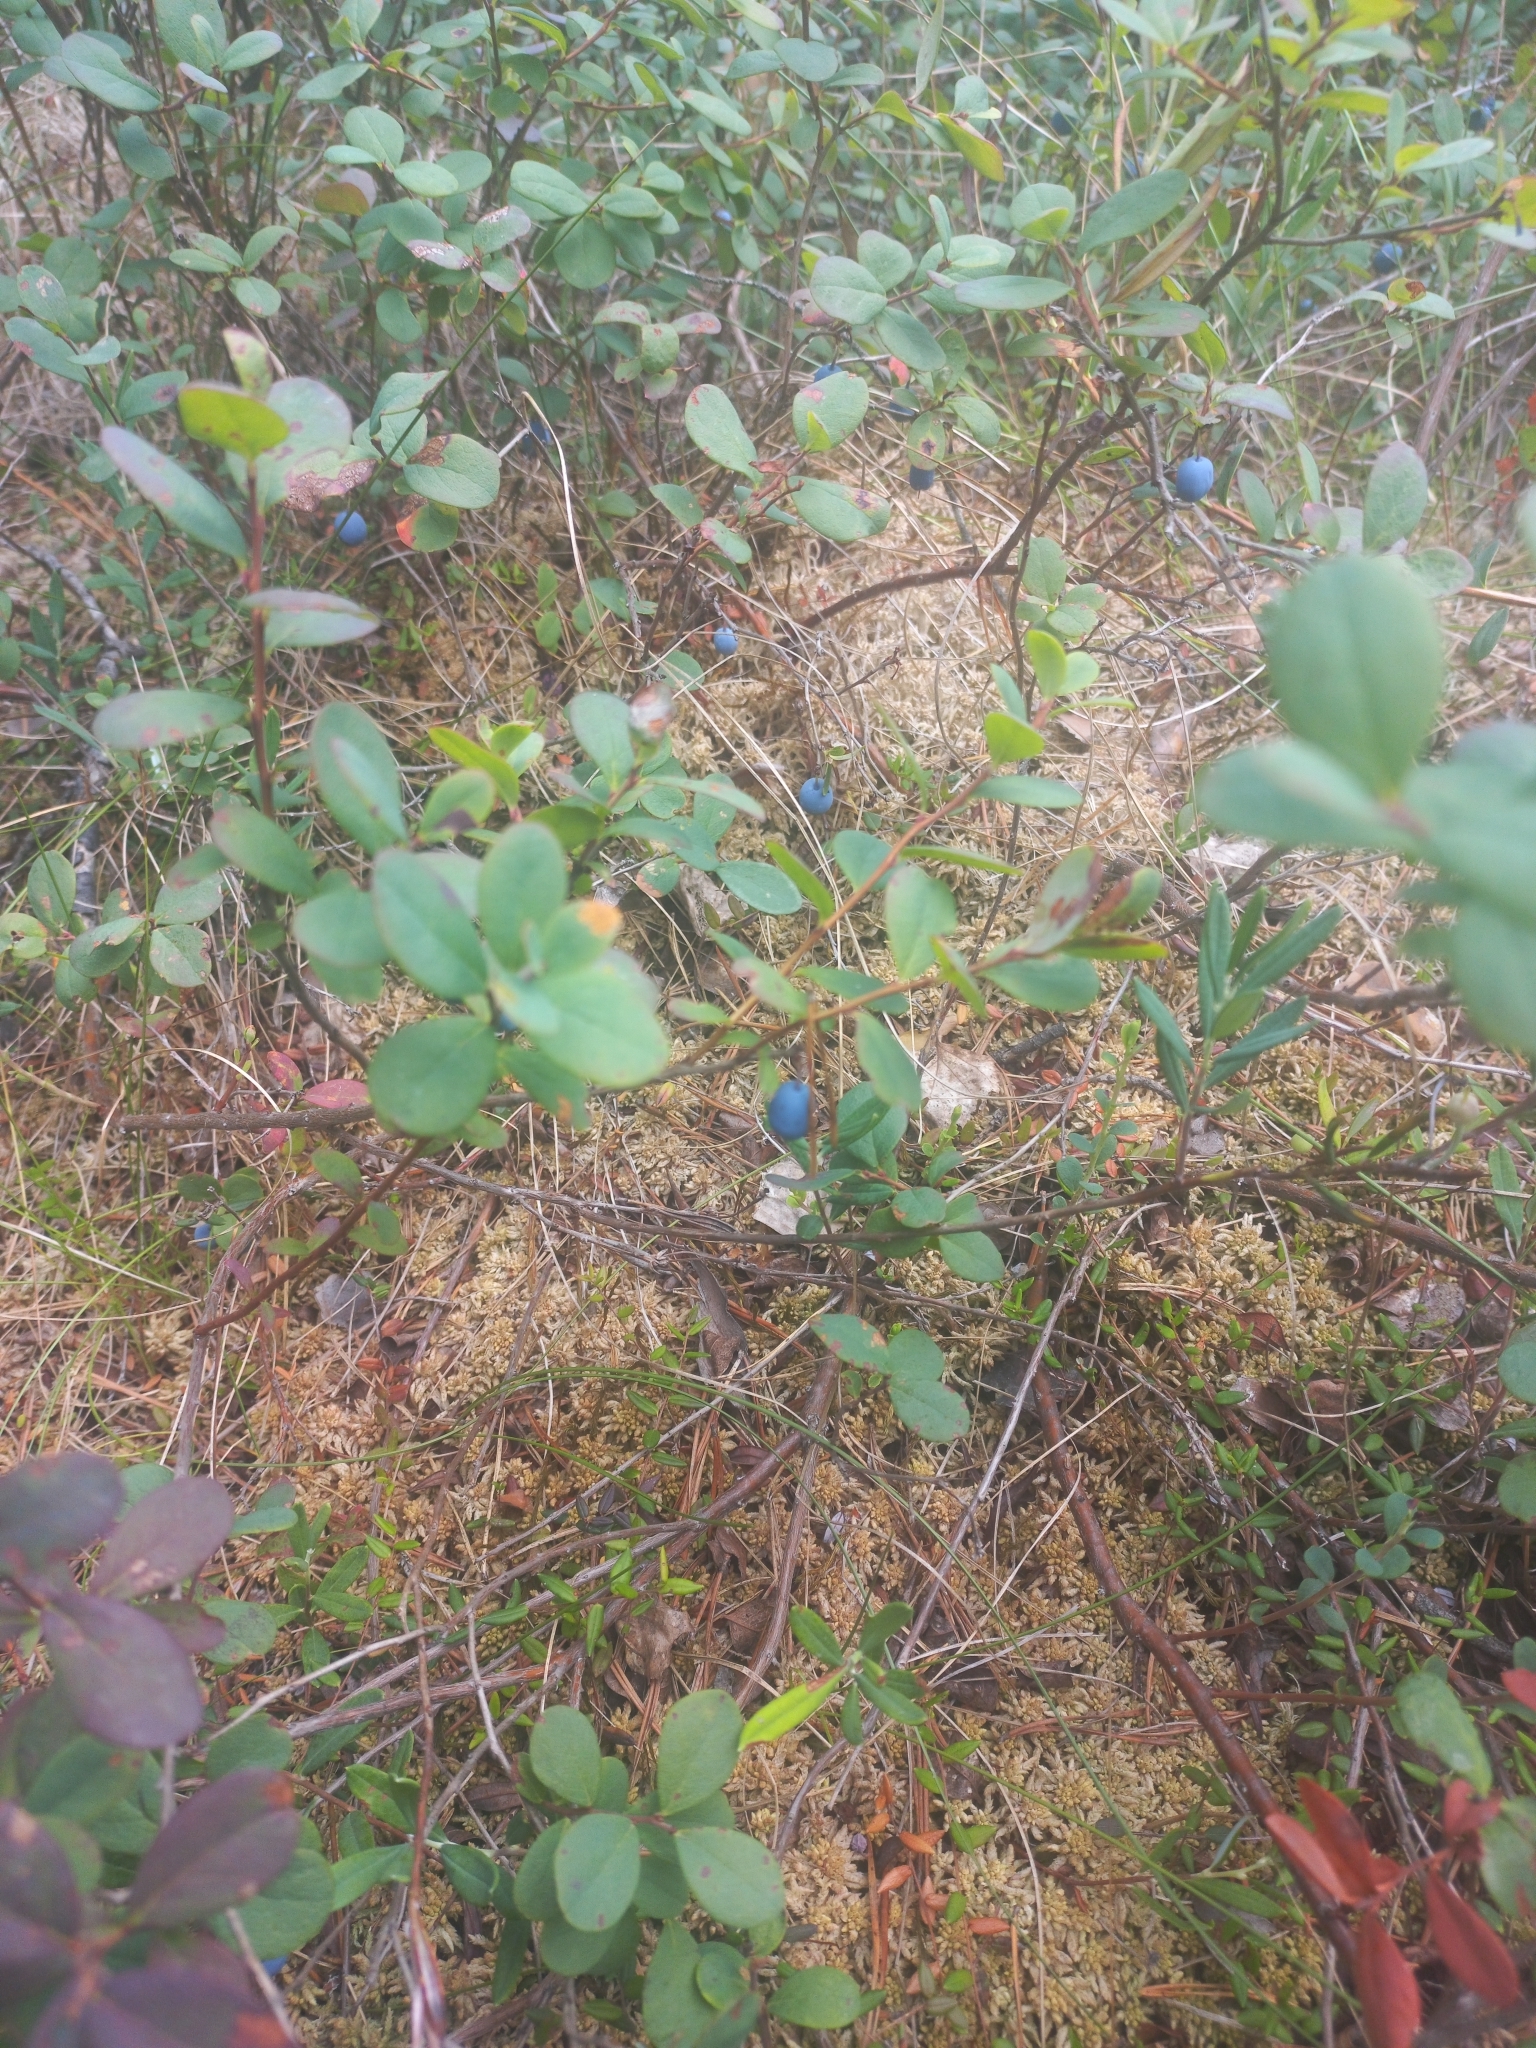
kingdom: Plantae
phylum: Tracheophyta
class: Magnoliopsida
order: Ericales
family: Ericaceae
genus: Vaccinium
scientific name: Vaccinium uliginosum
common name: Bog bilberry
